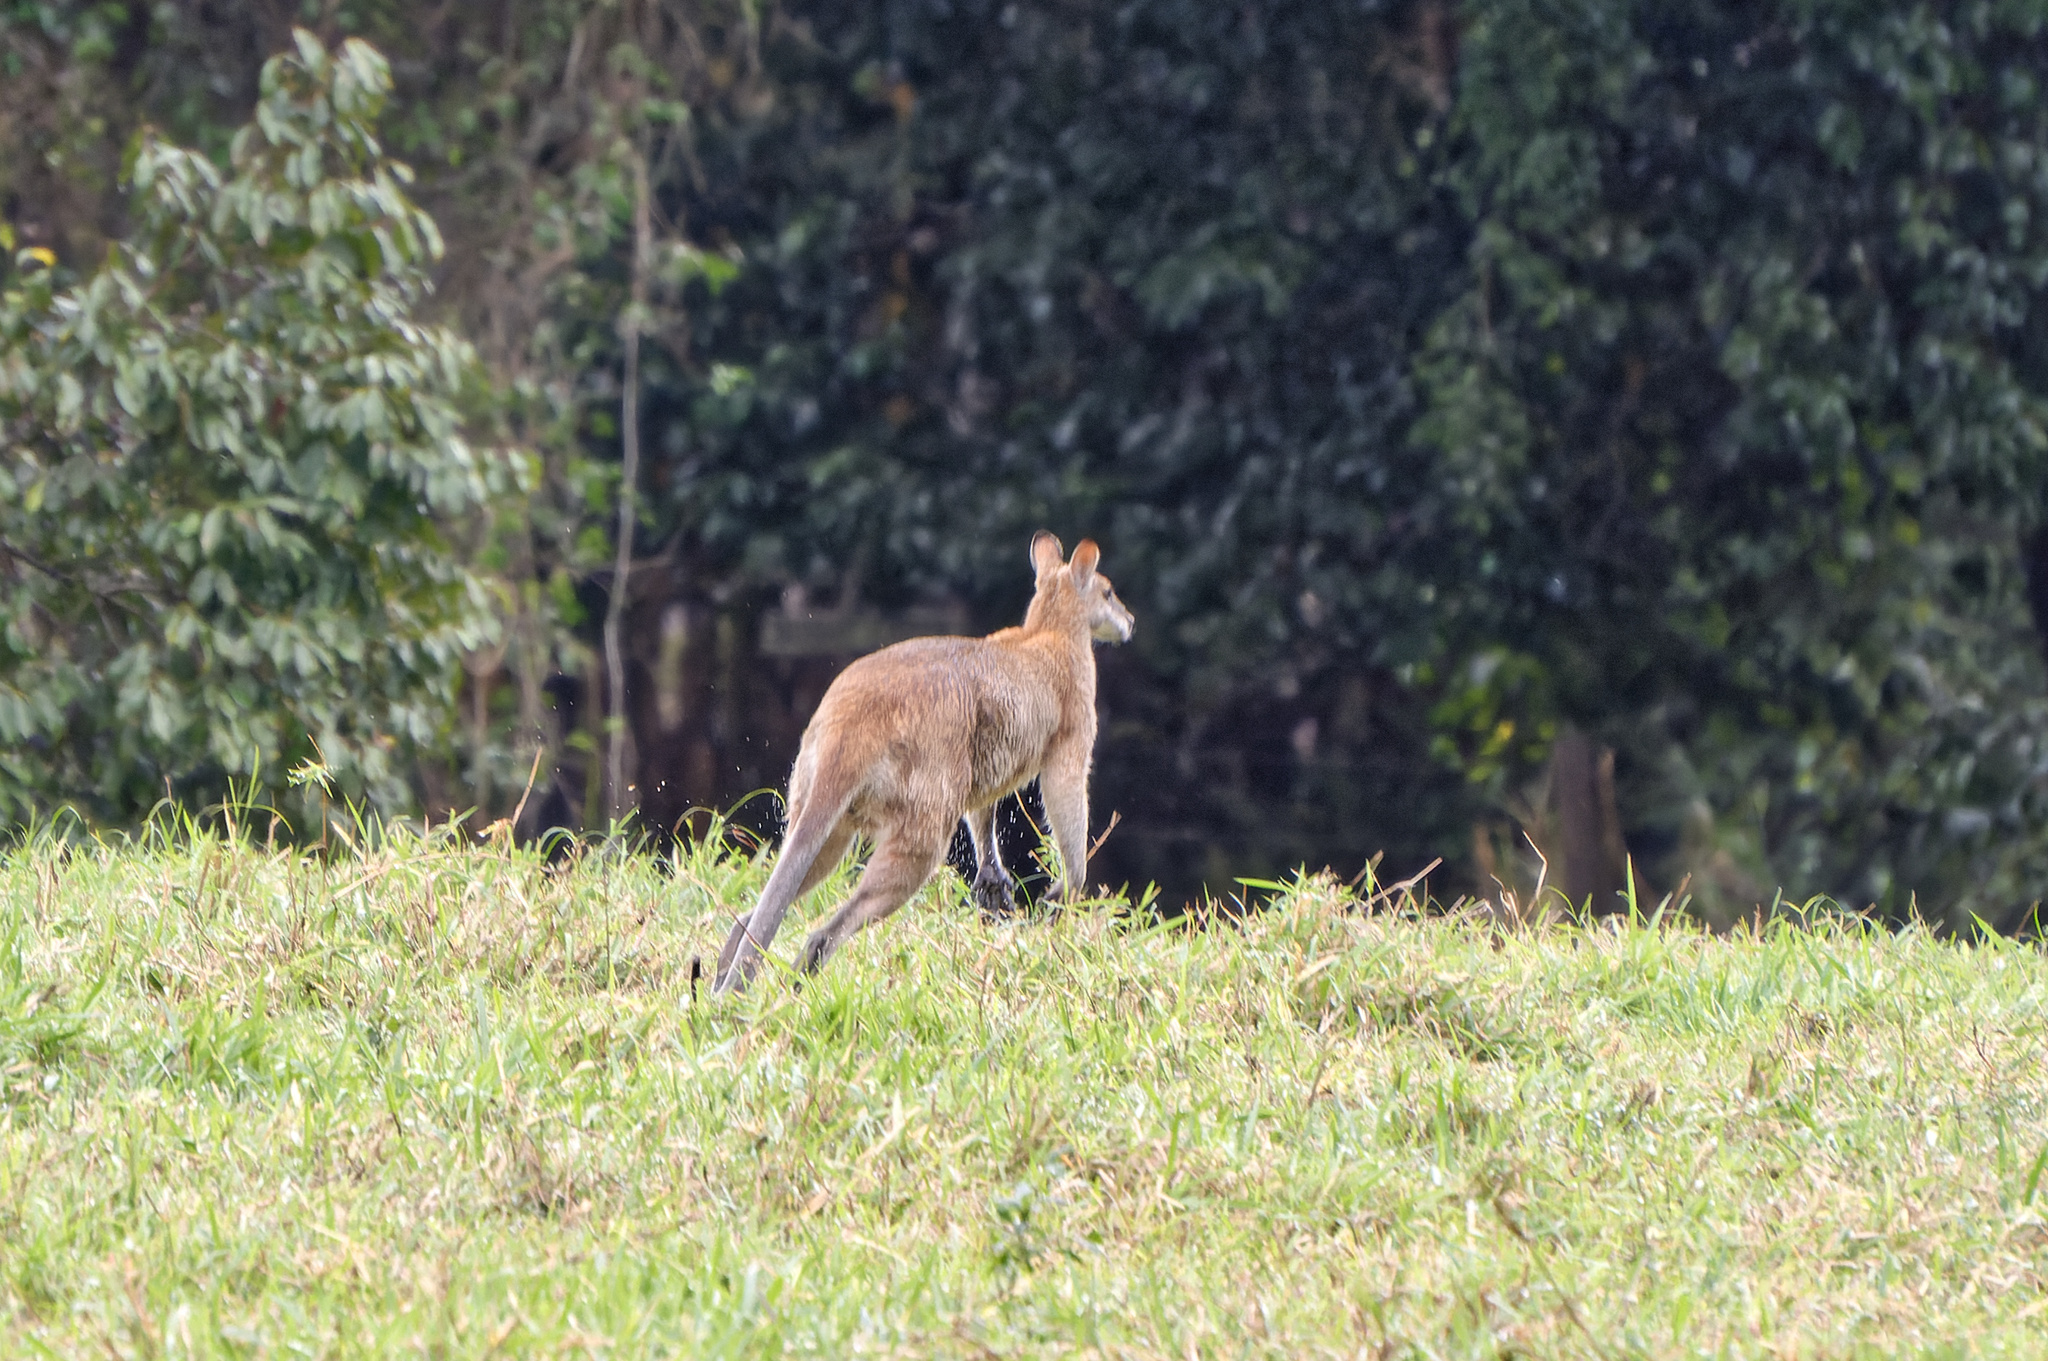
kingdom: Animalia
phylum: Chordata
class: Mammalia
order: Diprotodontia
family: Macropodidae
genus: Macropus
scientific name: Macropus agilis
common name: Agile wallaby
